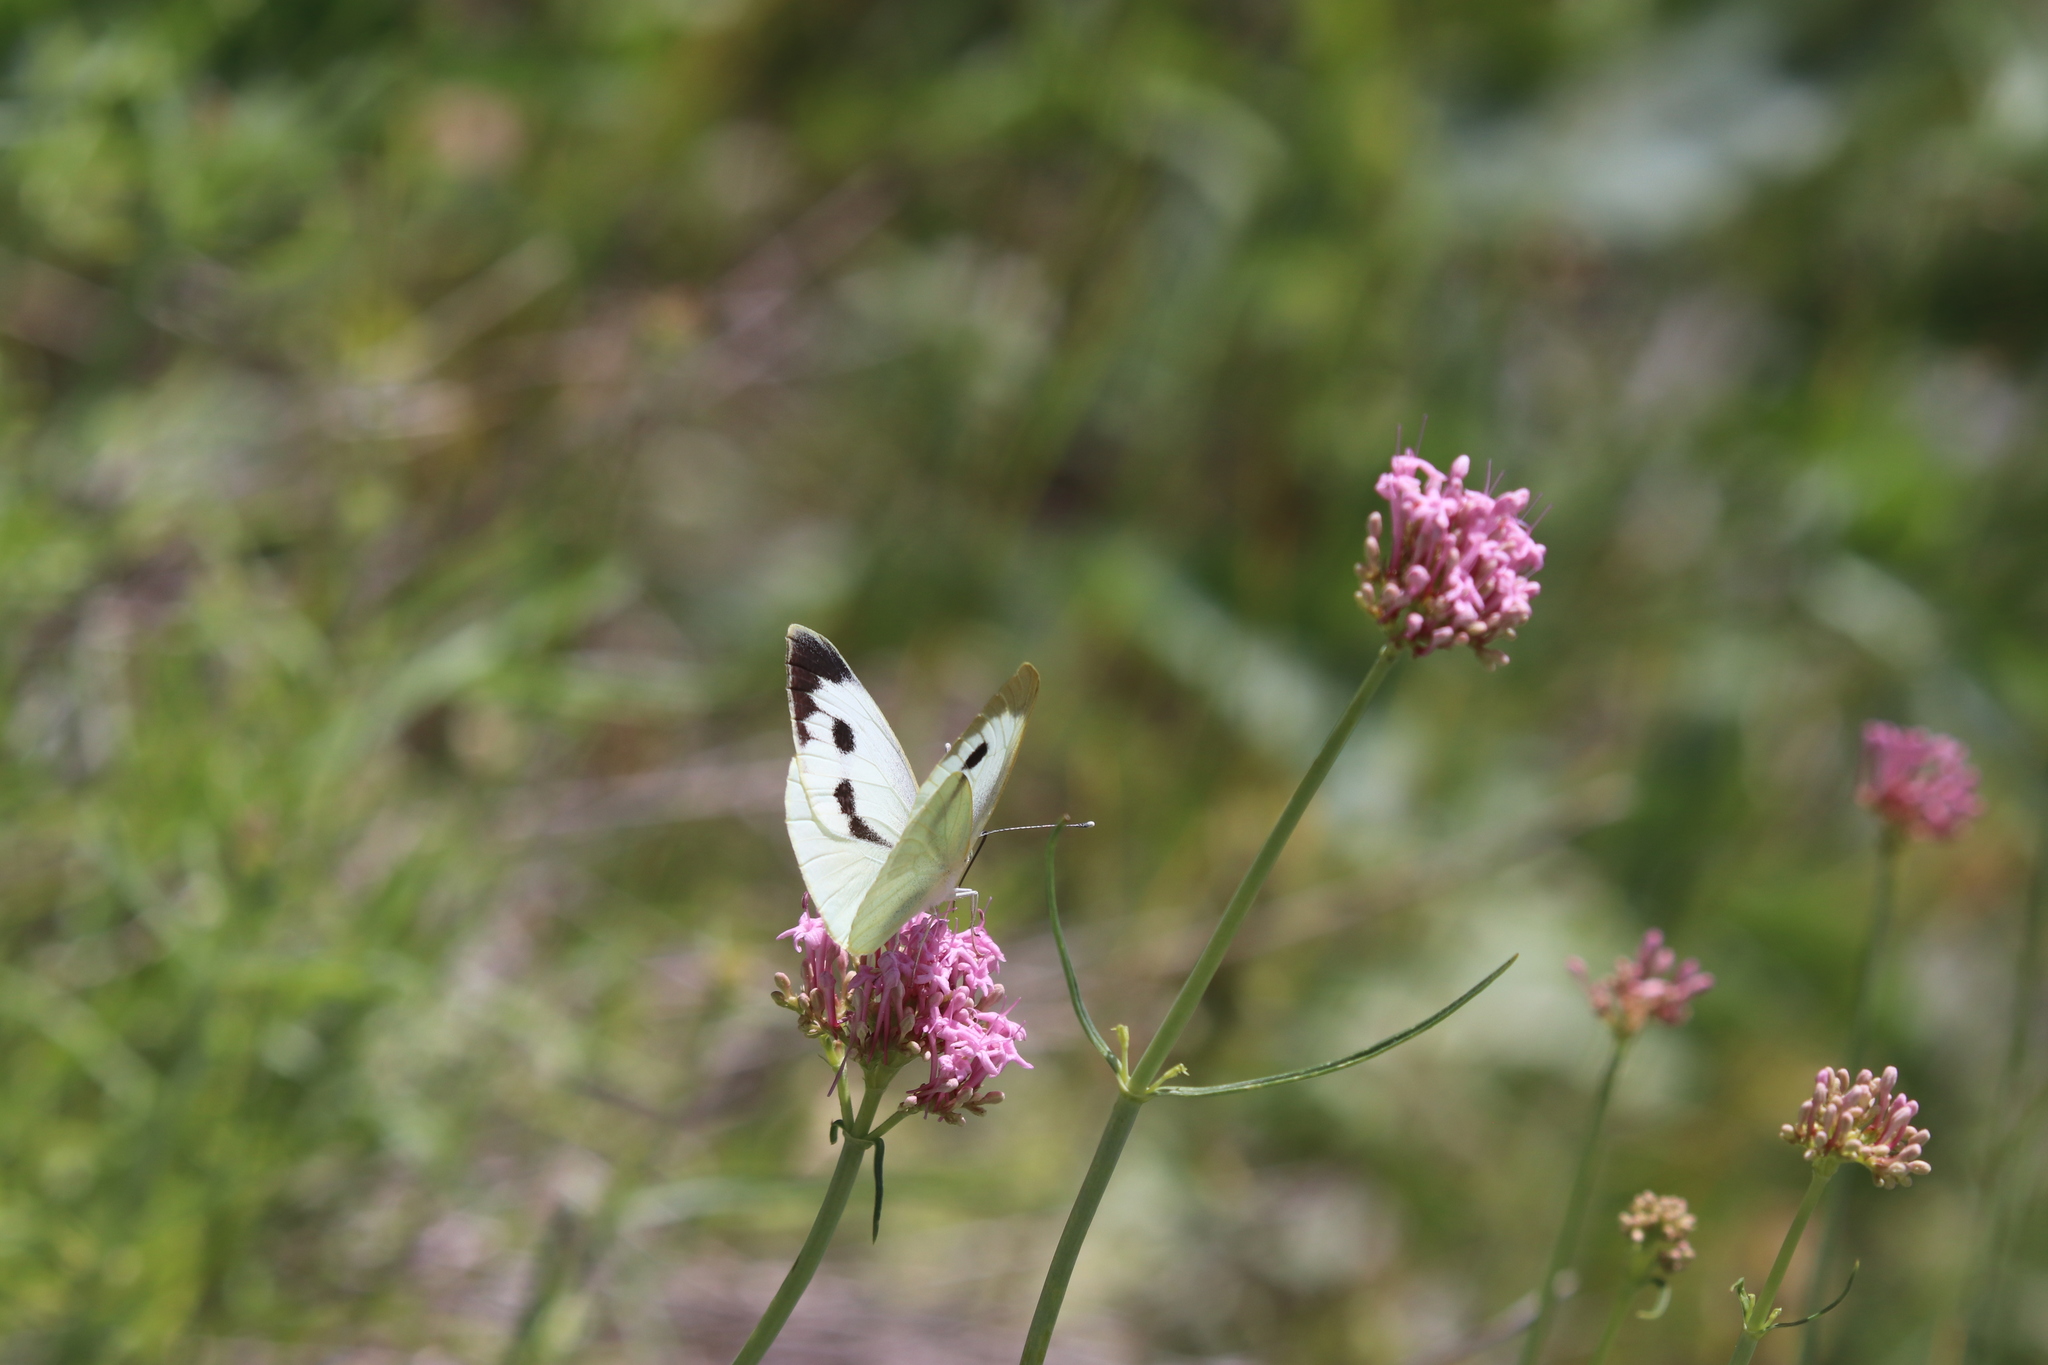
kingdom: Animalia
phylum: Arthropoda
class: Insecta
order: Lepidoptera
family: Pieridae
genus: Pieris
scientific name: Pieris brassicae
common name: Large white
